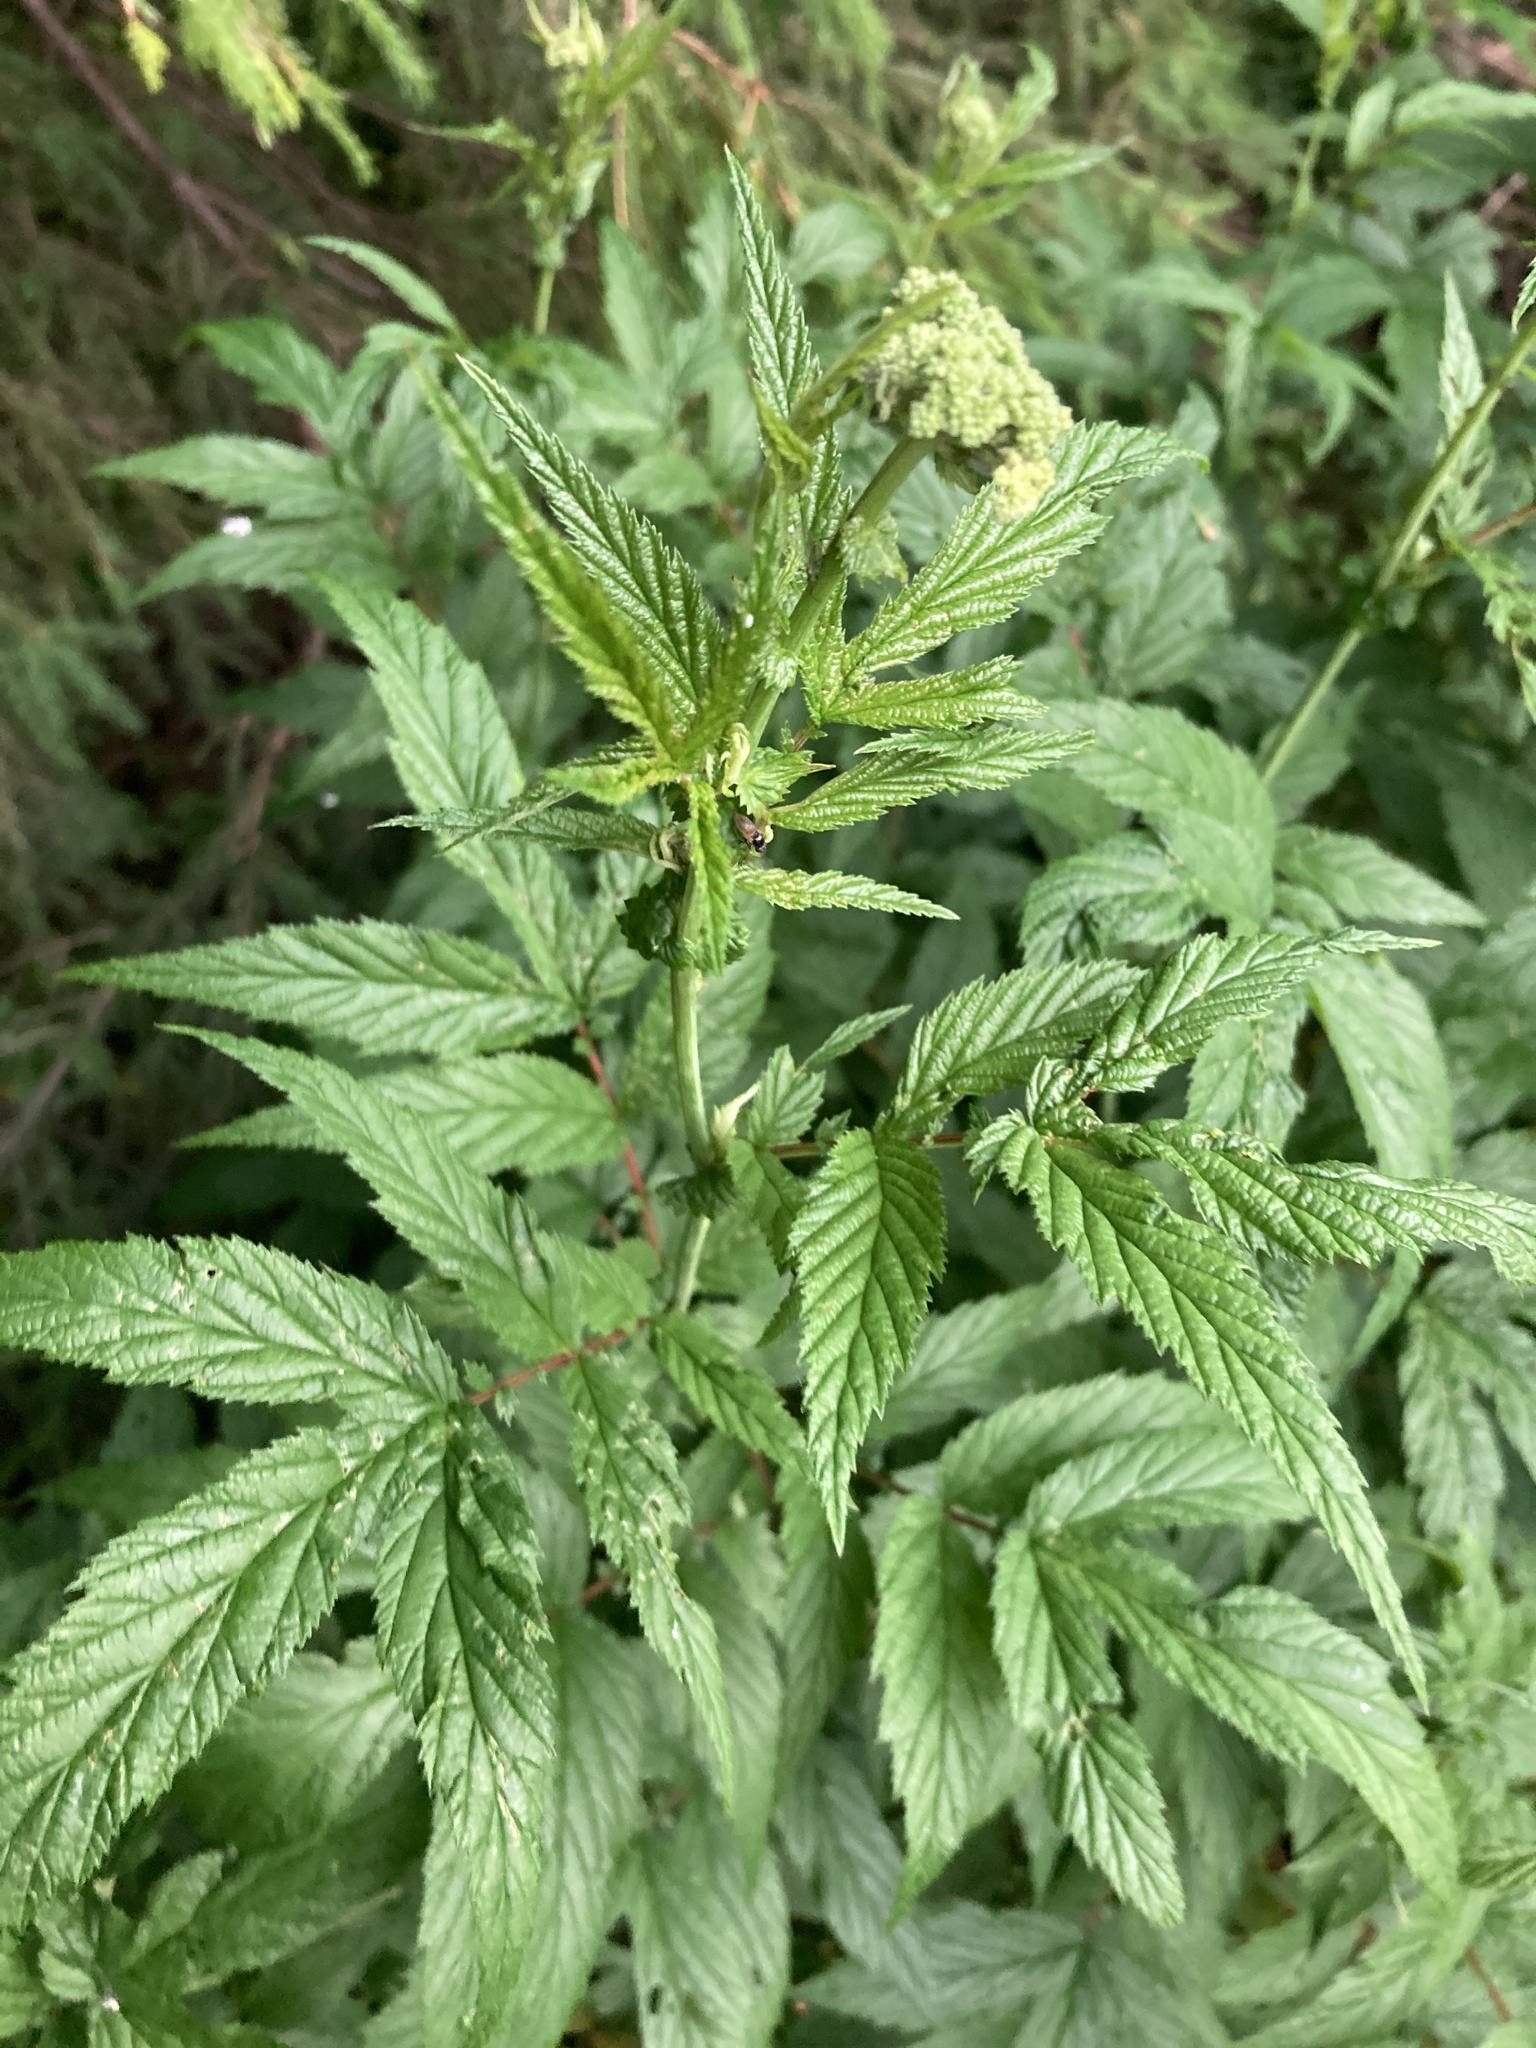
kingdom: Plantae
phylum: Tracheophyta
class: Magnoliopsida
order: Rosales
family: Rosaceae
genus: Filipendula
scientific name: Filipendula ulmaria
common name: Meadowsweet
